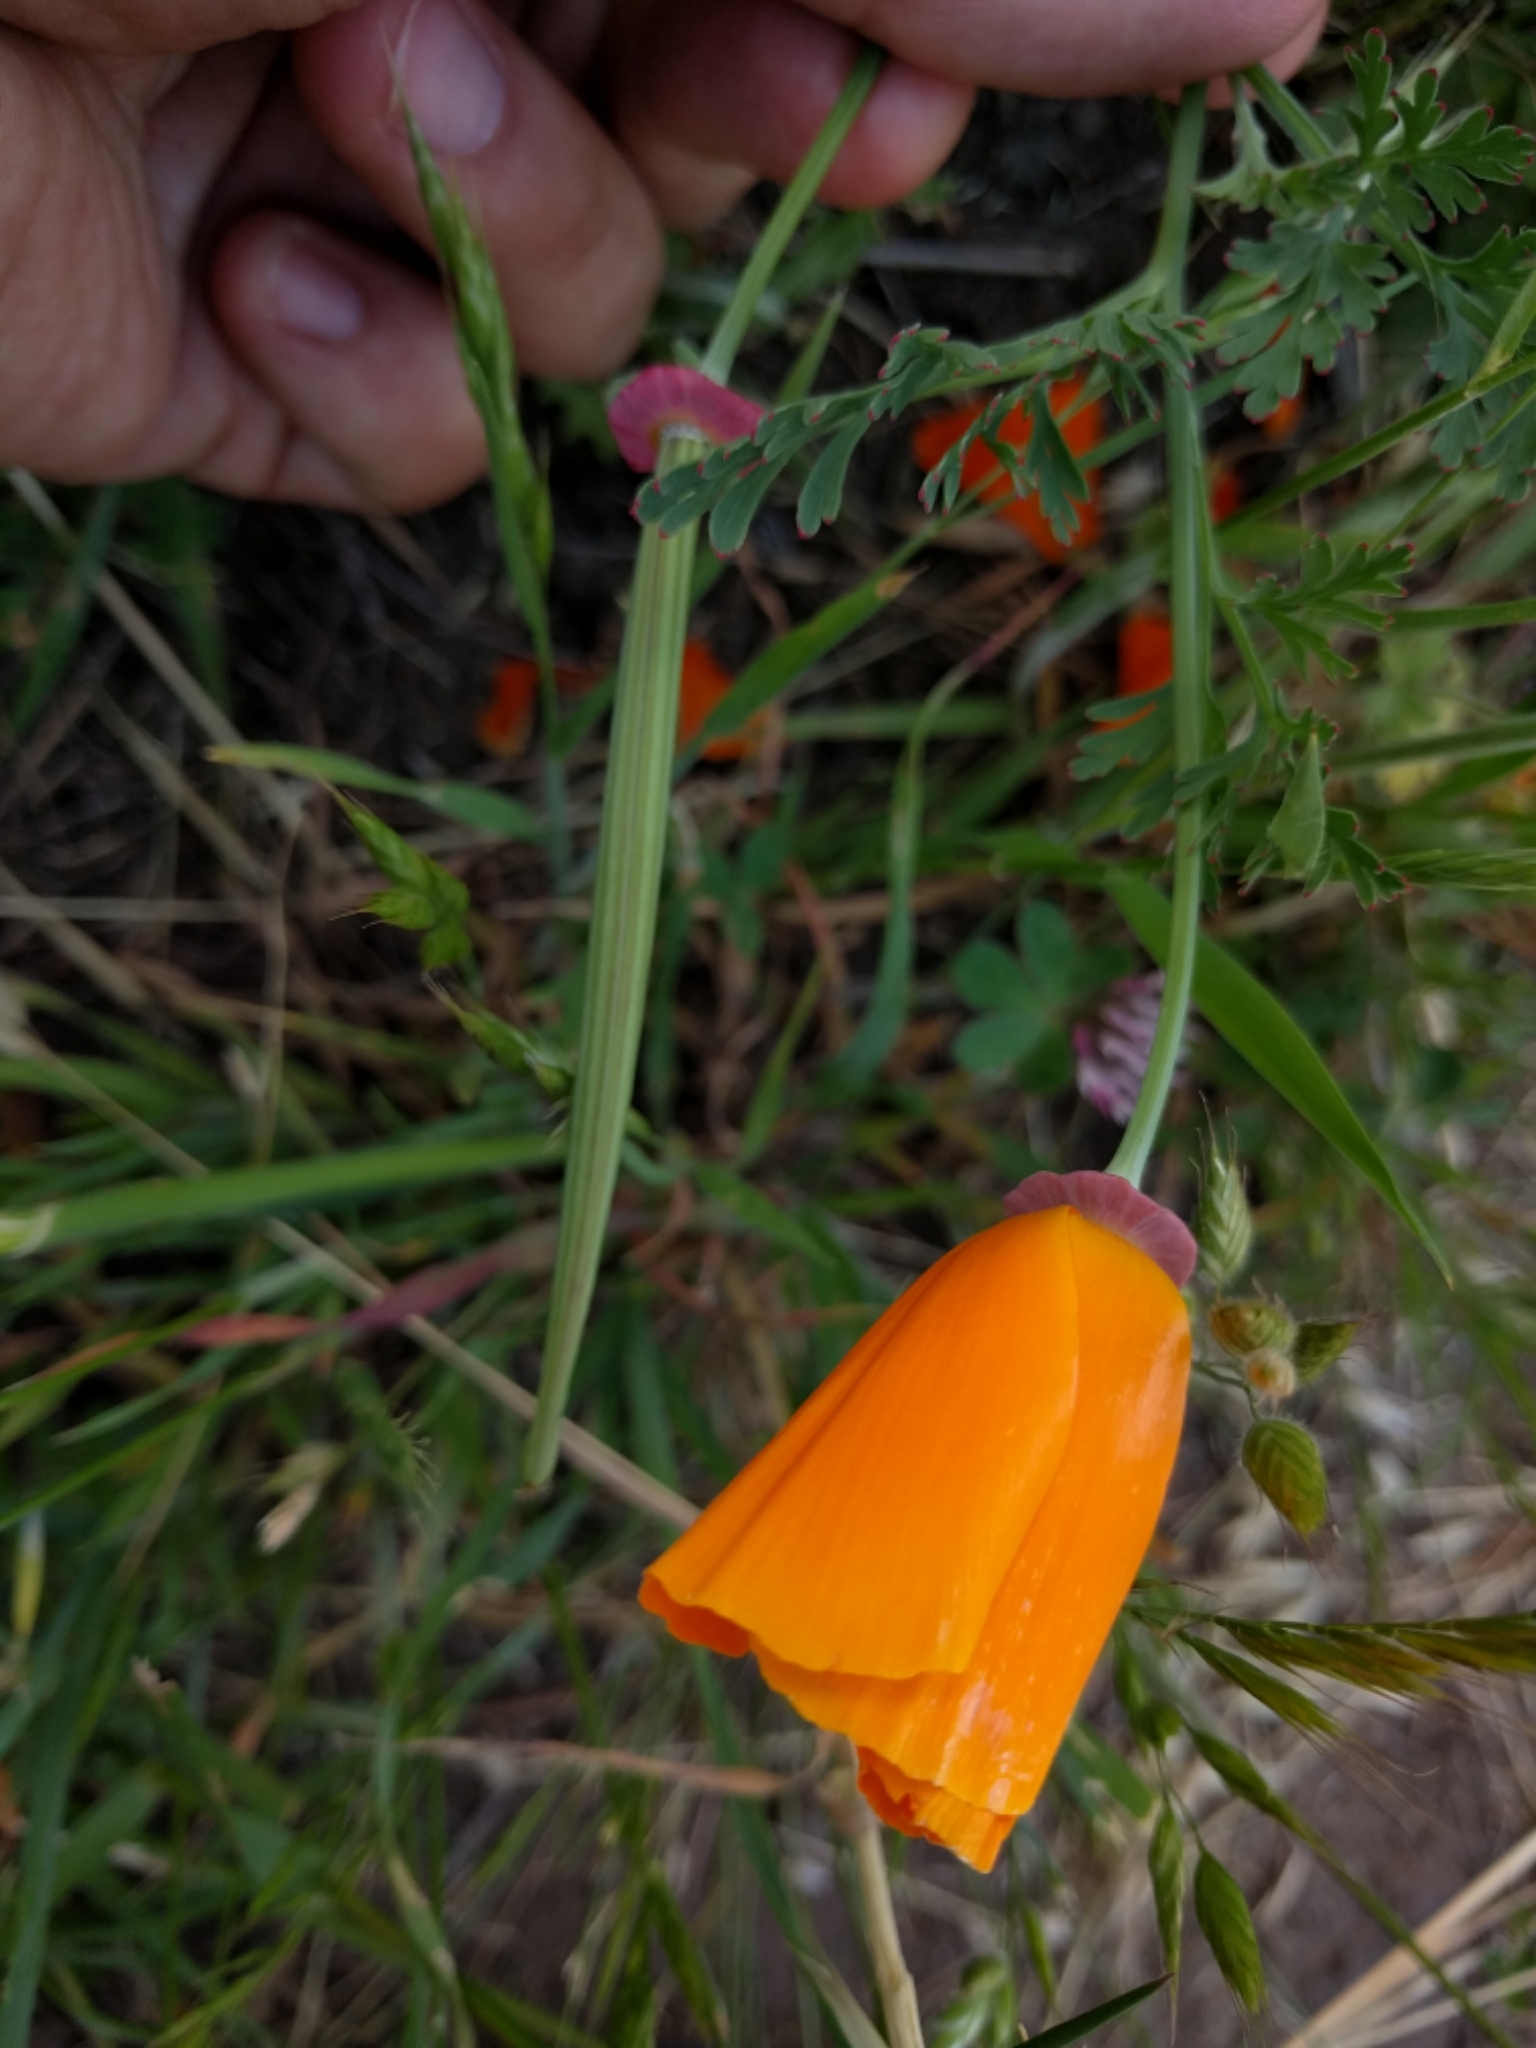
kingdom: Plantae
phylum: Tracheophyta
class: Magnoliopsida
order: Ranunculales
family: Papaveraceae
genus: Eschscholzia
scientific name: Eschscholzia californica
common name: California poppy
